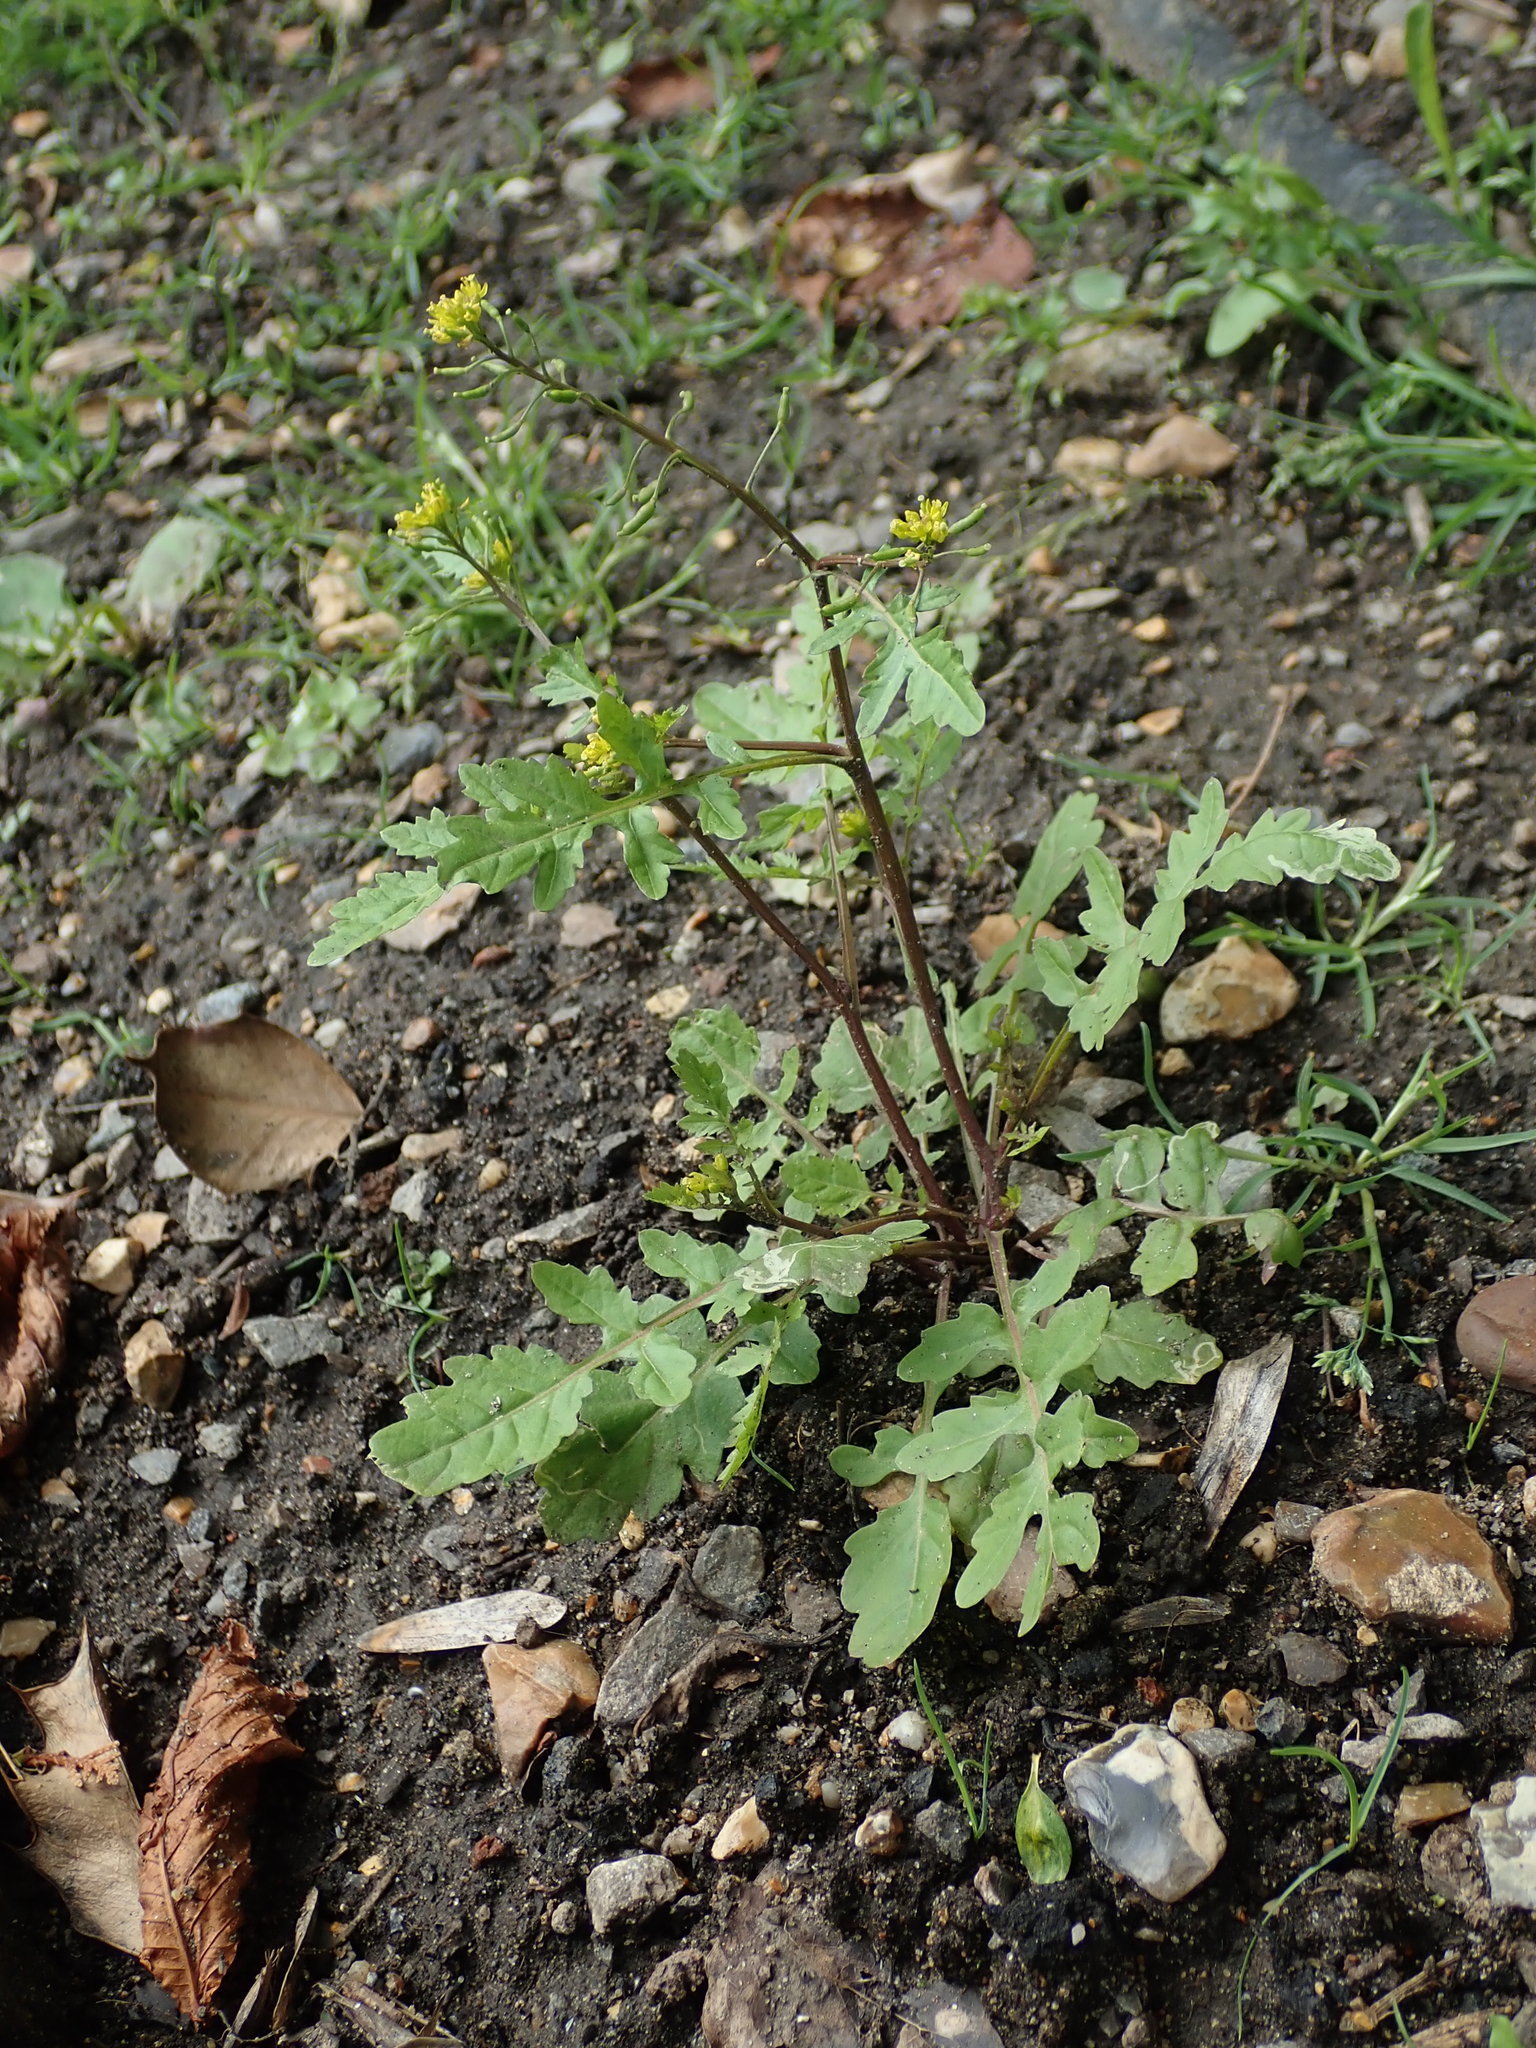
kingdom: Plantae
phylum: Tracheophyta
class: Magnoliopsida
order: Brassicales
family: Brassicaceae
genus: Rorippa
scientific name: Rorippa palustris
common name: Marsh yellow-cress
